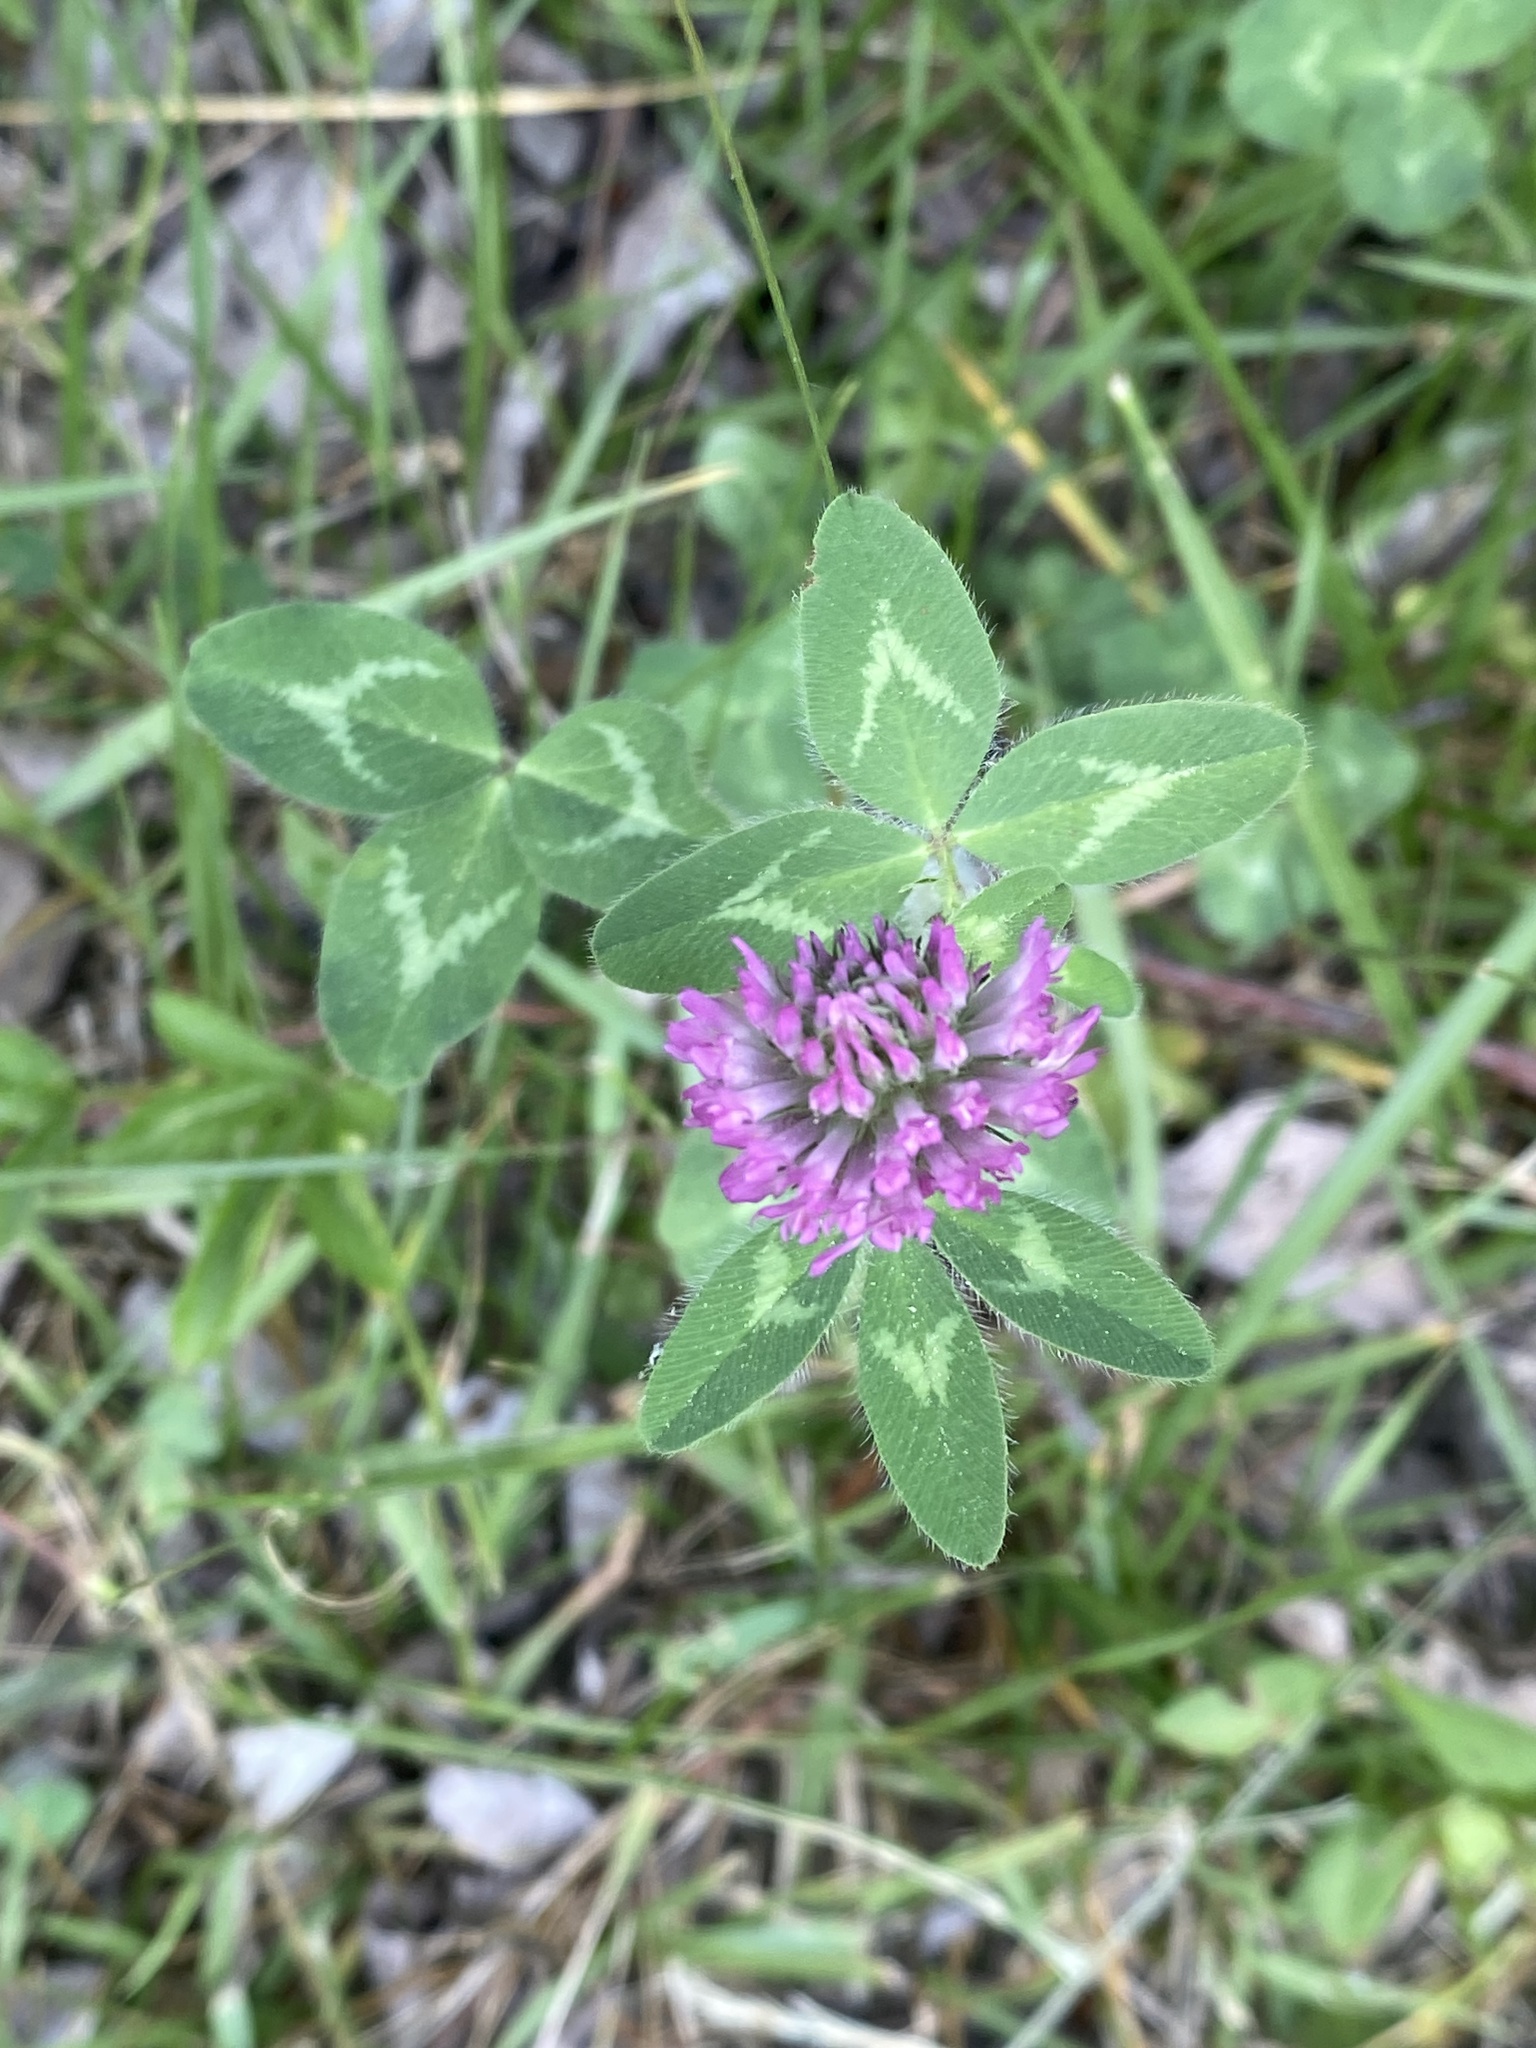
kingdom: Plantae
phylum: Tracheophyta
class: Magnoliopsida
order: Fabales
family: Fabaceae
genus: Trifolium
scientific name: Trifolium pratense
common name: Red clover
